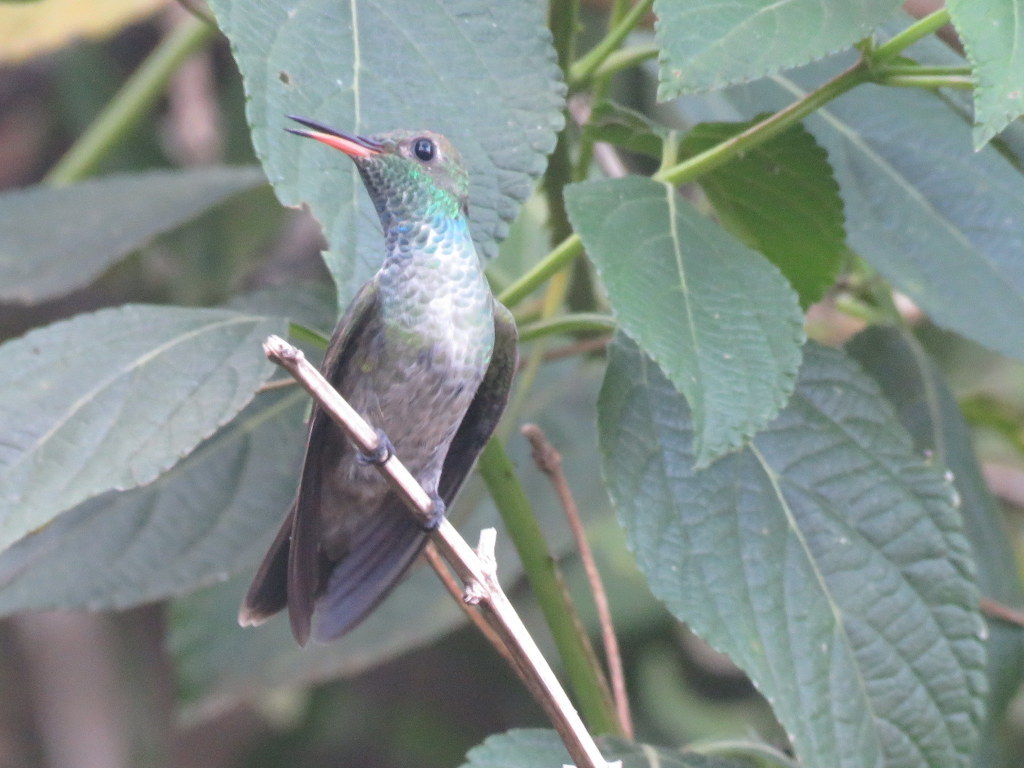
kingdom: Animalia
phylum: Chordata
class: Aves
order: Apodiformes
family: Trochilidae
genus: Chrysuronia
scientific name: Chrysuronia versicolor
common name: Versicolored emerald
